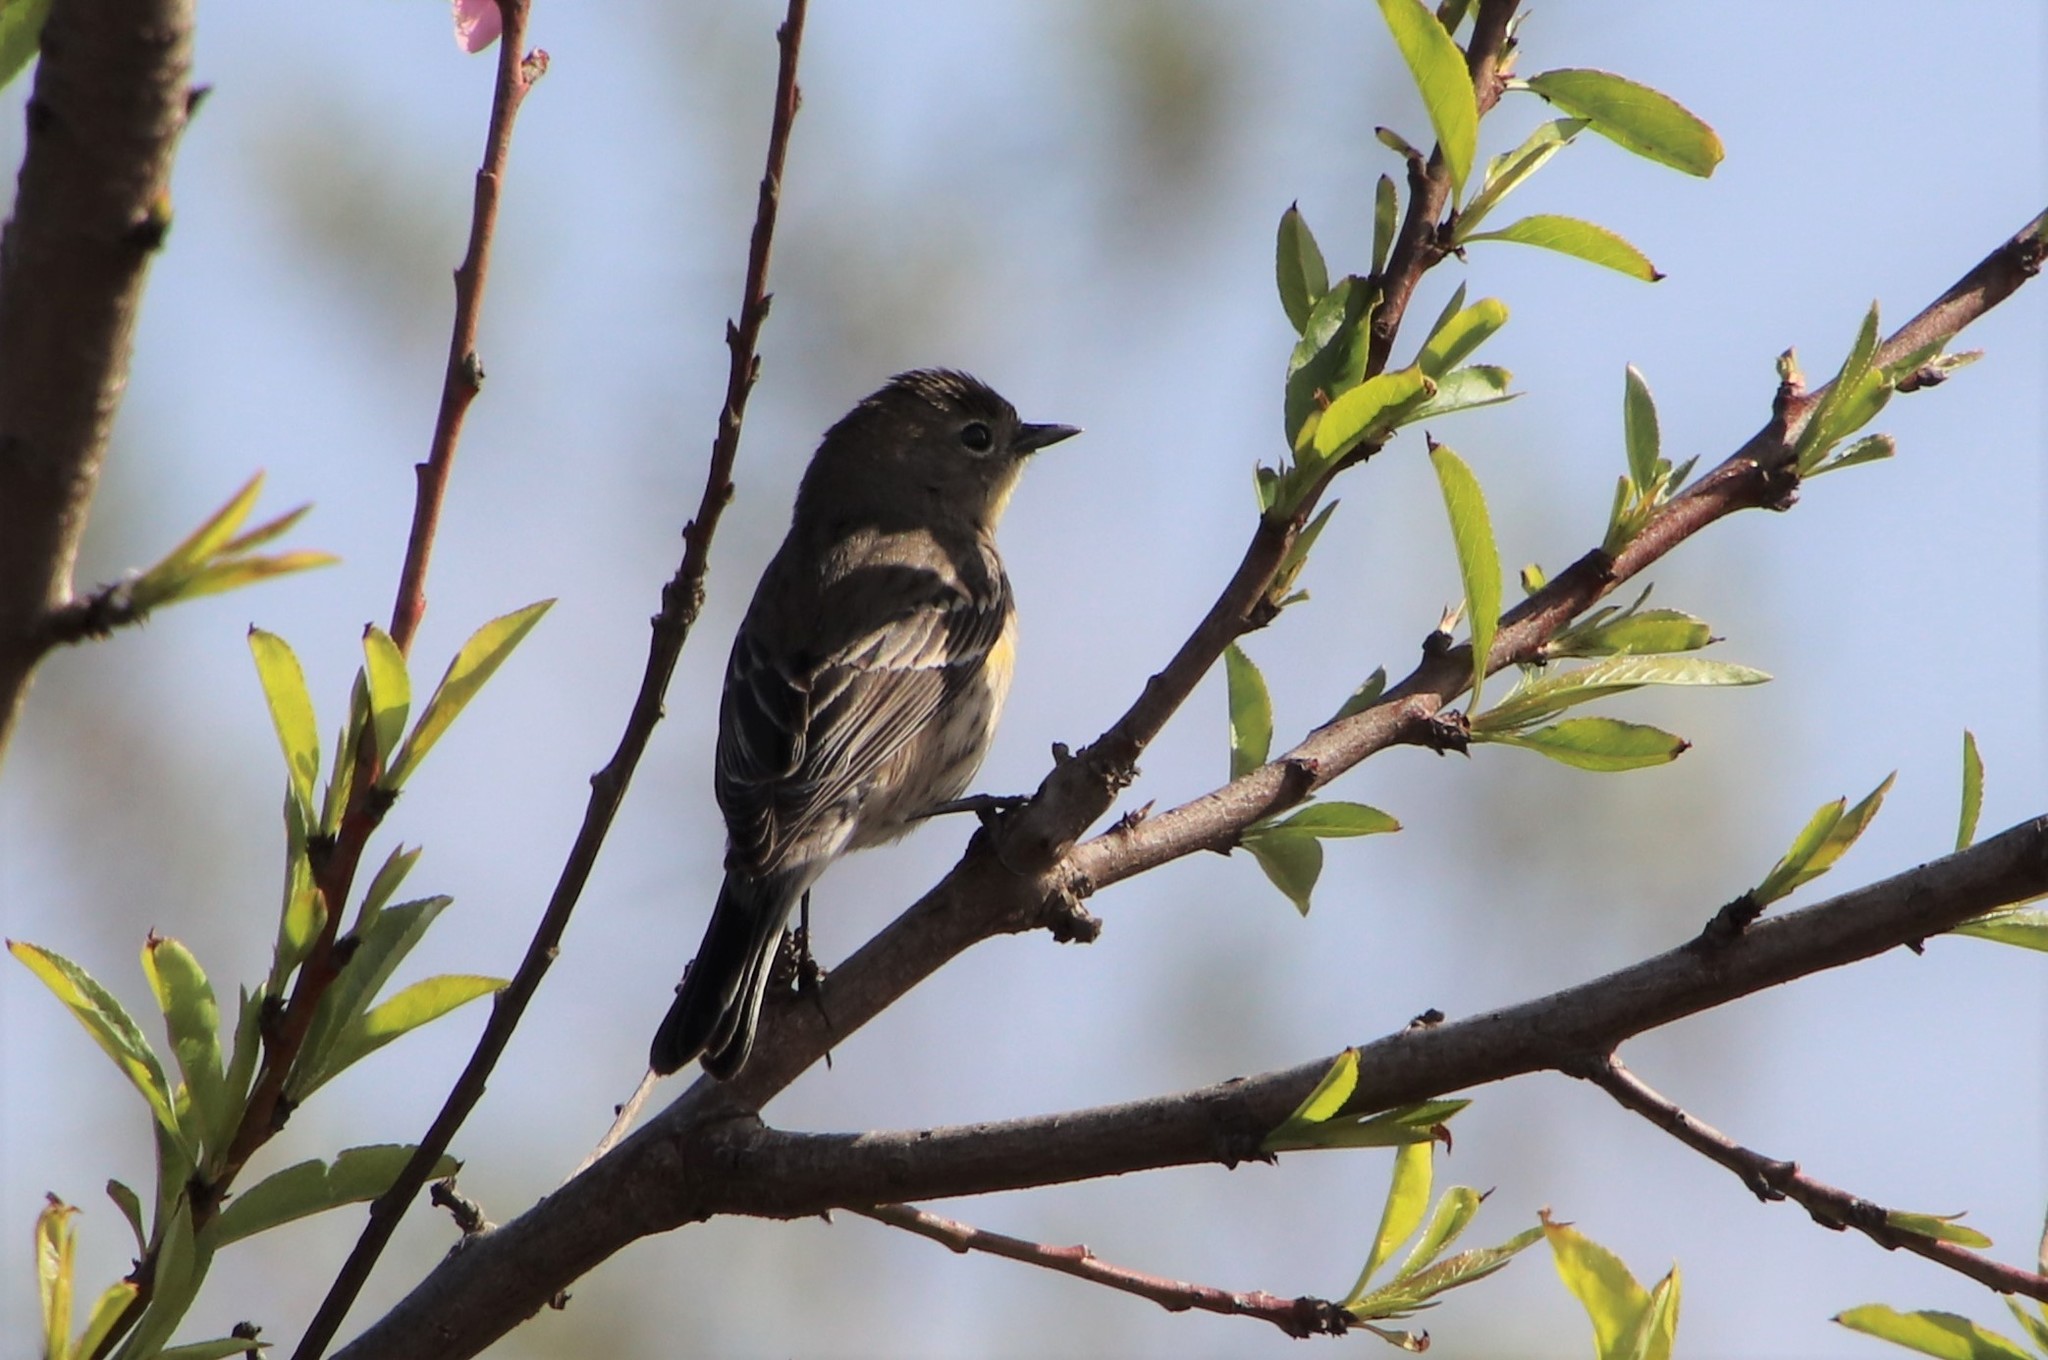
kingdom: Animalia
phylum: Chordata
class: Aves
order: Passeriformes
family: Parulidae
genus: Setophaga
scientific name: Setophaga auduboni
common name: Audubon's warbler
